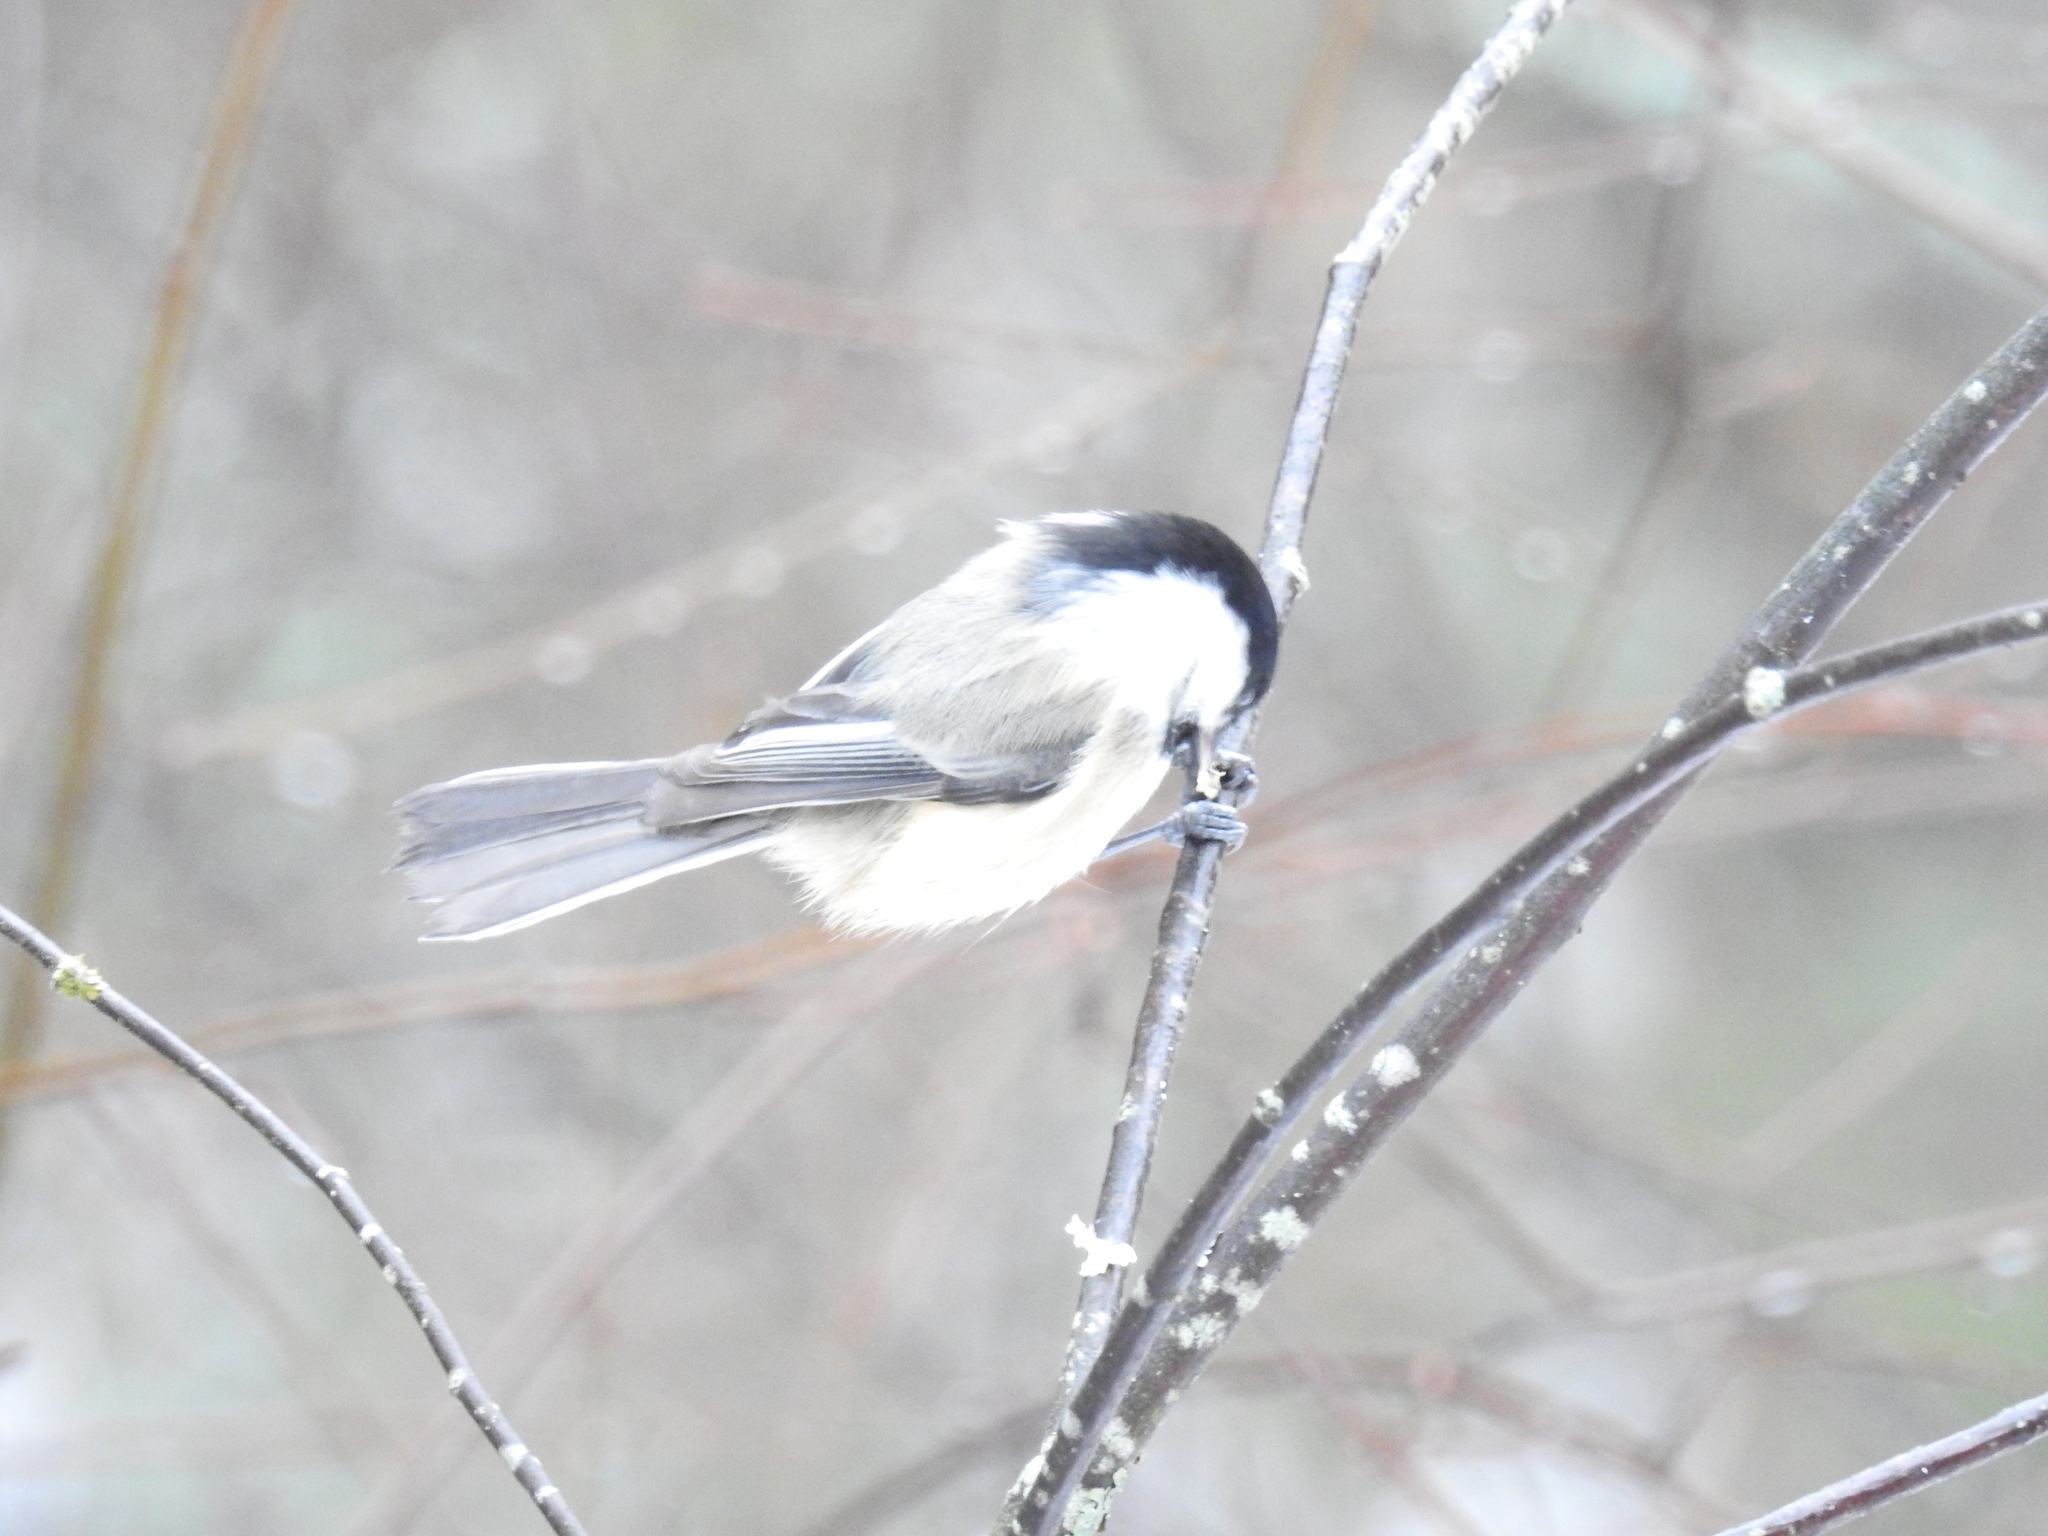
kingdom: Animalia
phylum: Chordata
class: Aves
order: Passeriformes
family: Paridae
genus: Poecile
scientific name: Poecile atricapillus
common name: Black-capped chickadee
